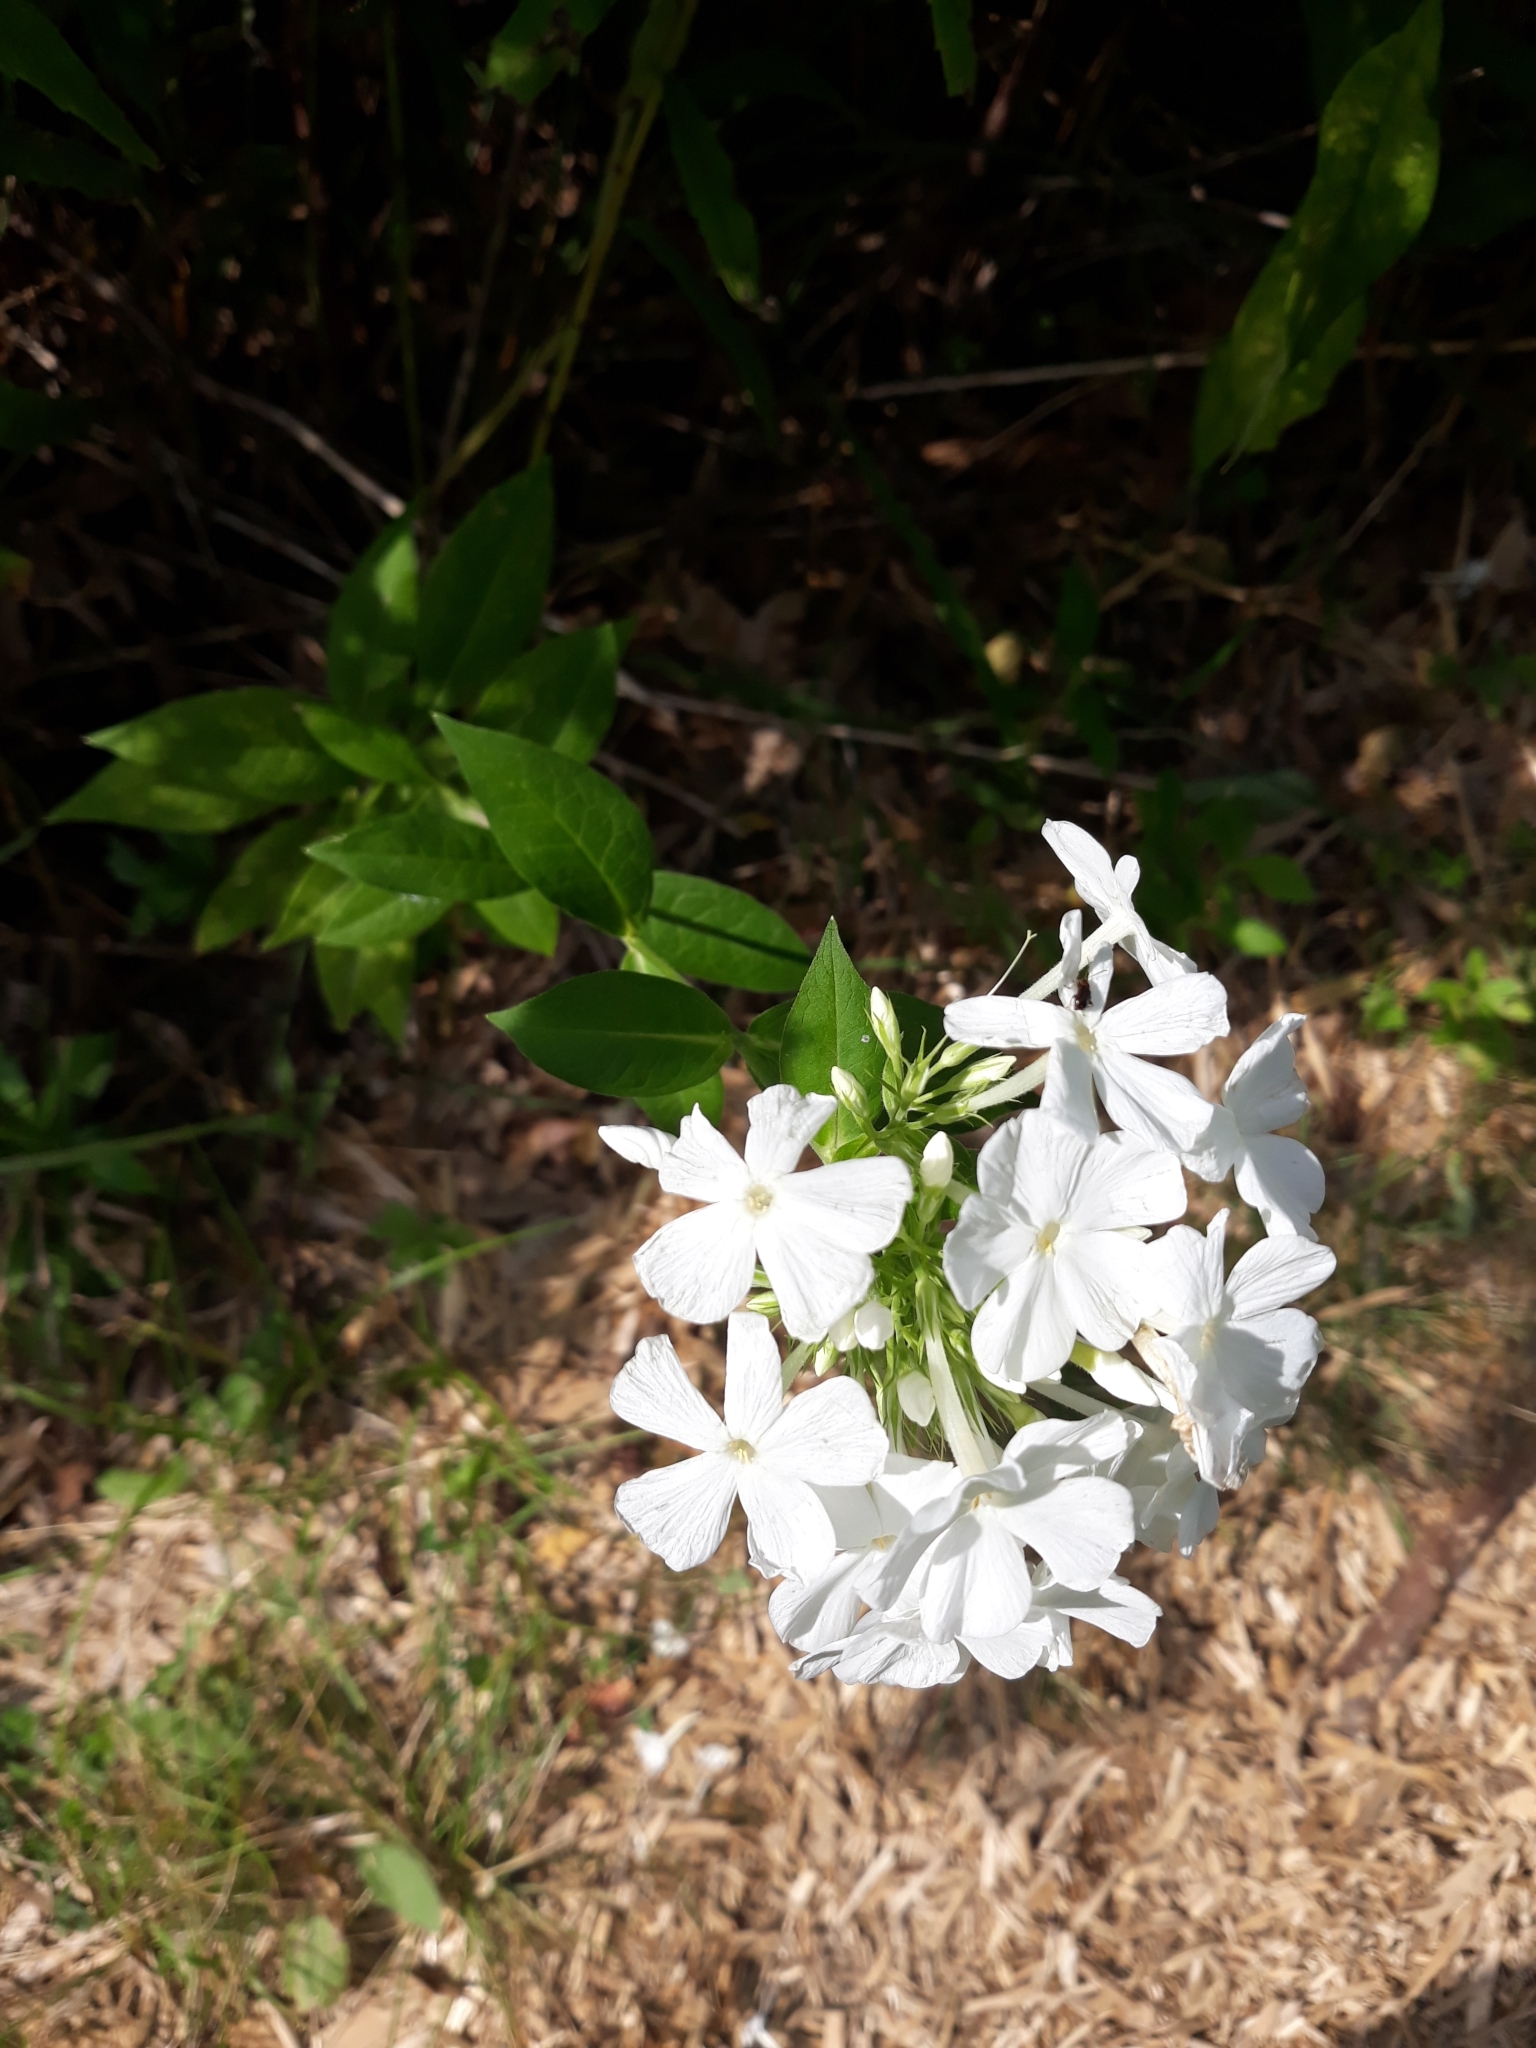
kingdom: Plantae
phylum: Tracheophyta
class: Magnoliopsida
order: Ericales
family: Polemoniaceae
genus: Phlox
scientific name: Phlox paniculata
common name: Fall phlox
